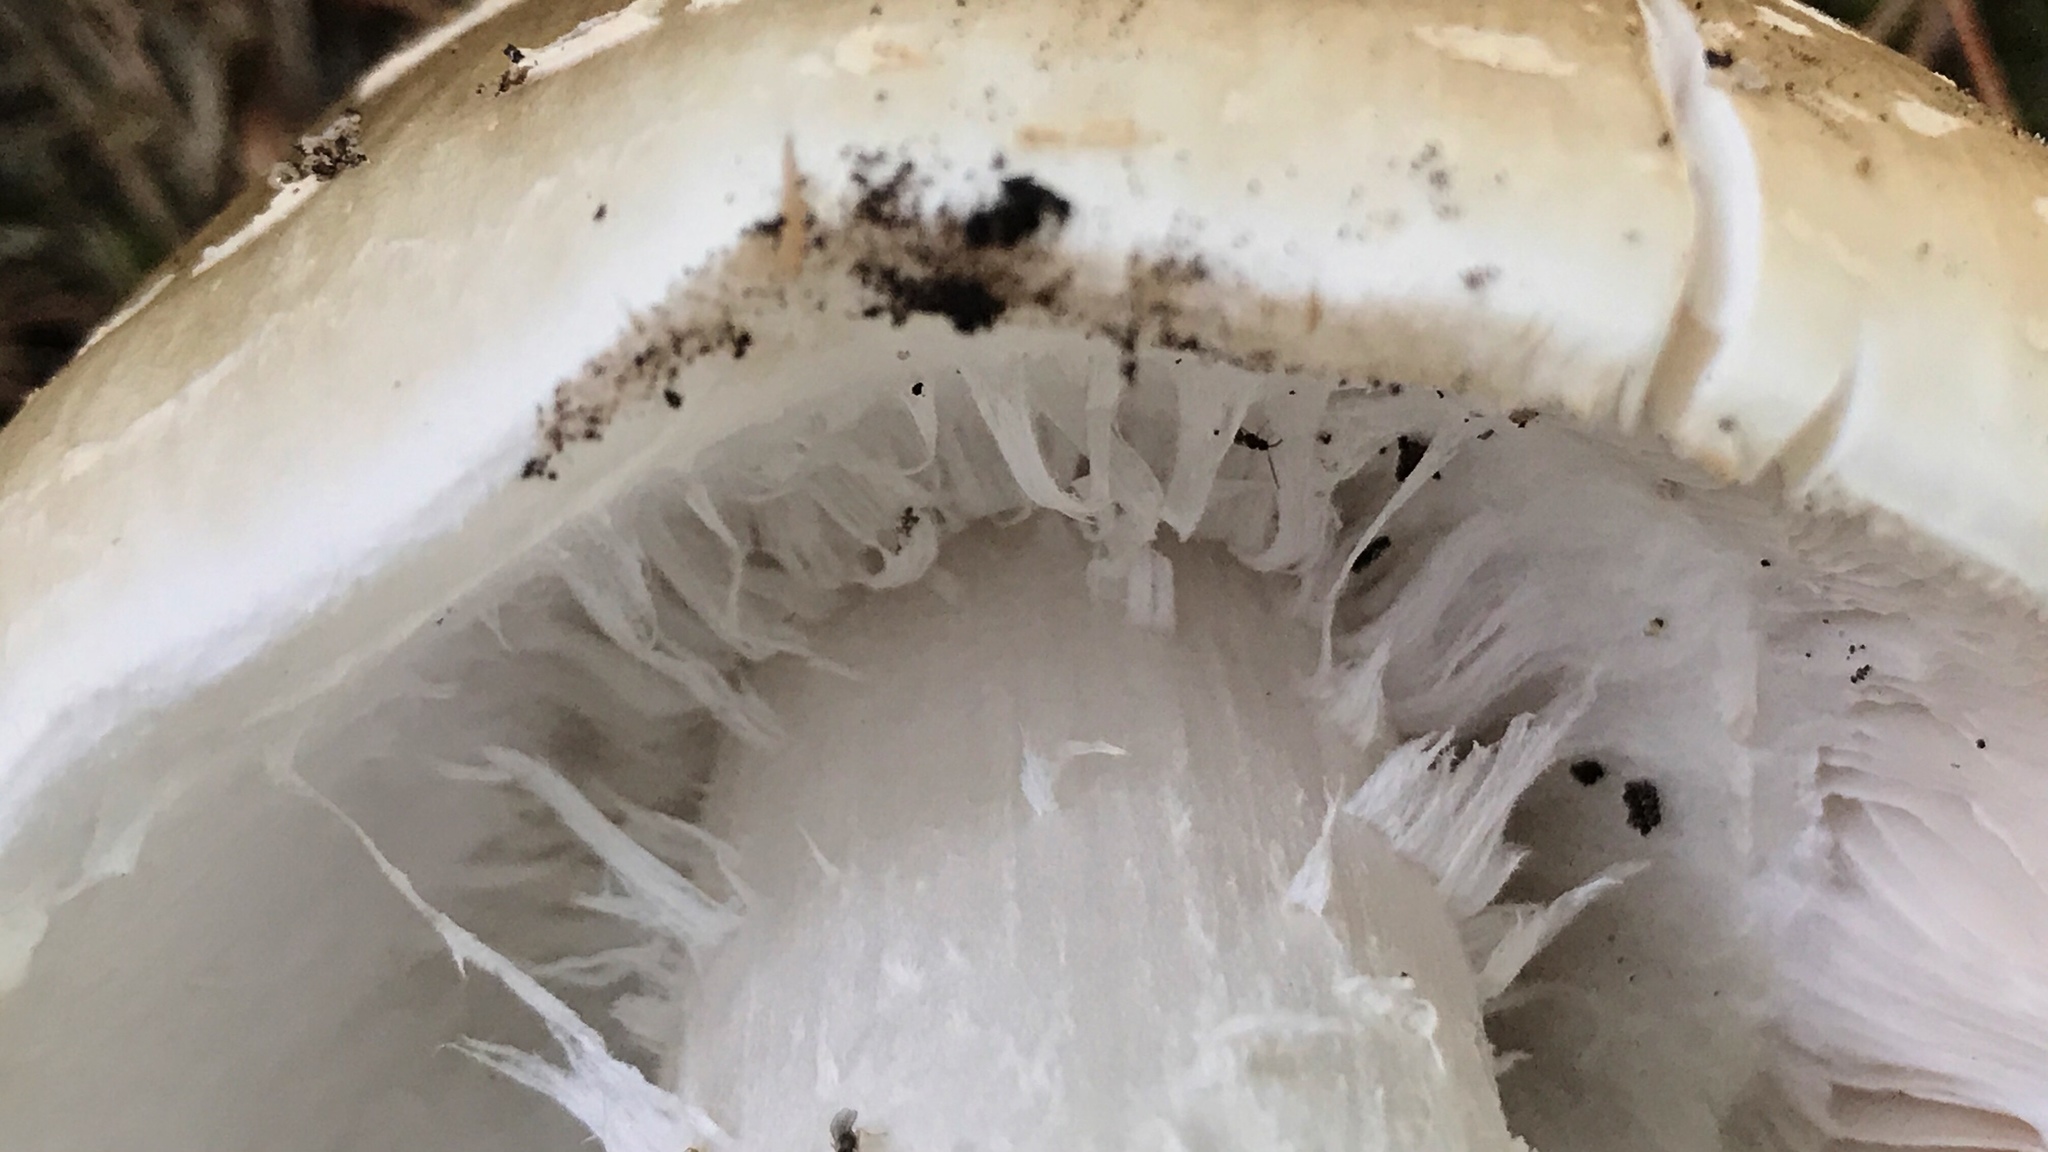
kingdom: Fungi
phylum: Basidiomycota
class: Agaricomycetes
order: Agaricales
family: Amanitaceae
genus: Amanita
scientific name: Amanita canescens
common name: Golden threads lepidella
